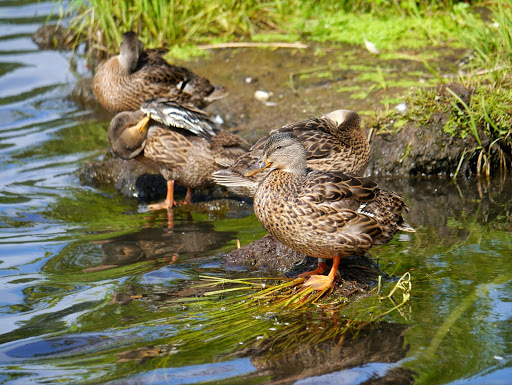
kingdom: Animalia
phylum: Chordata
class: Aves
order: Anseriformes
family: Anatidae
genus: Anas
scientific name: Anas platyrhynchos
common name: Mallard
